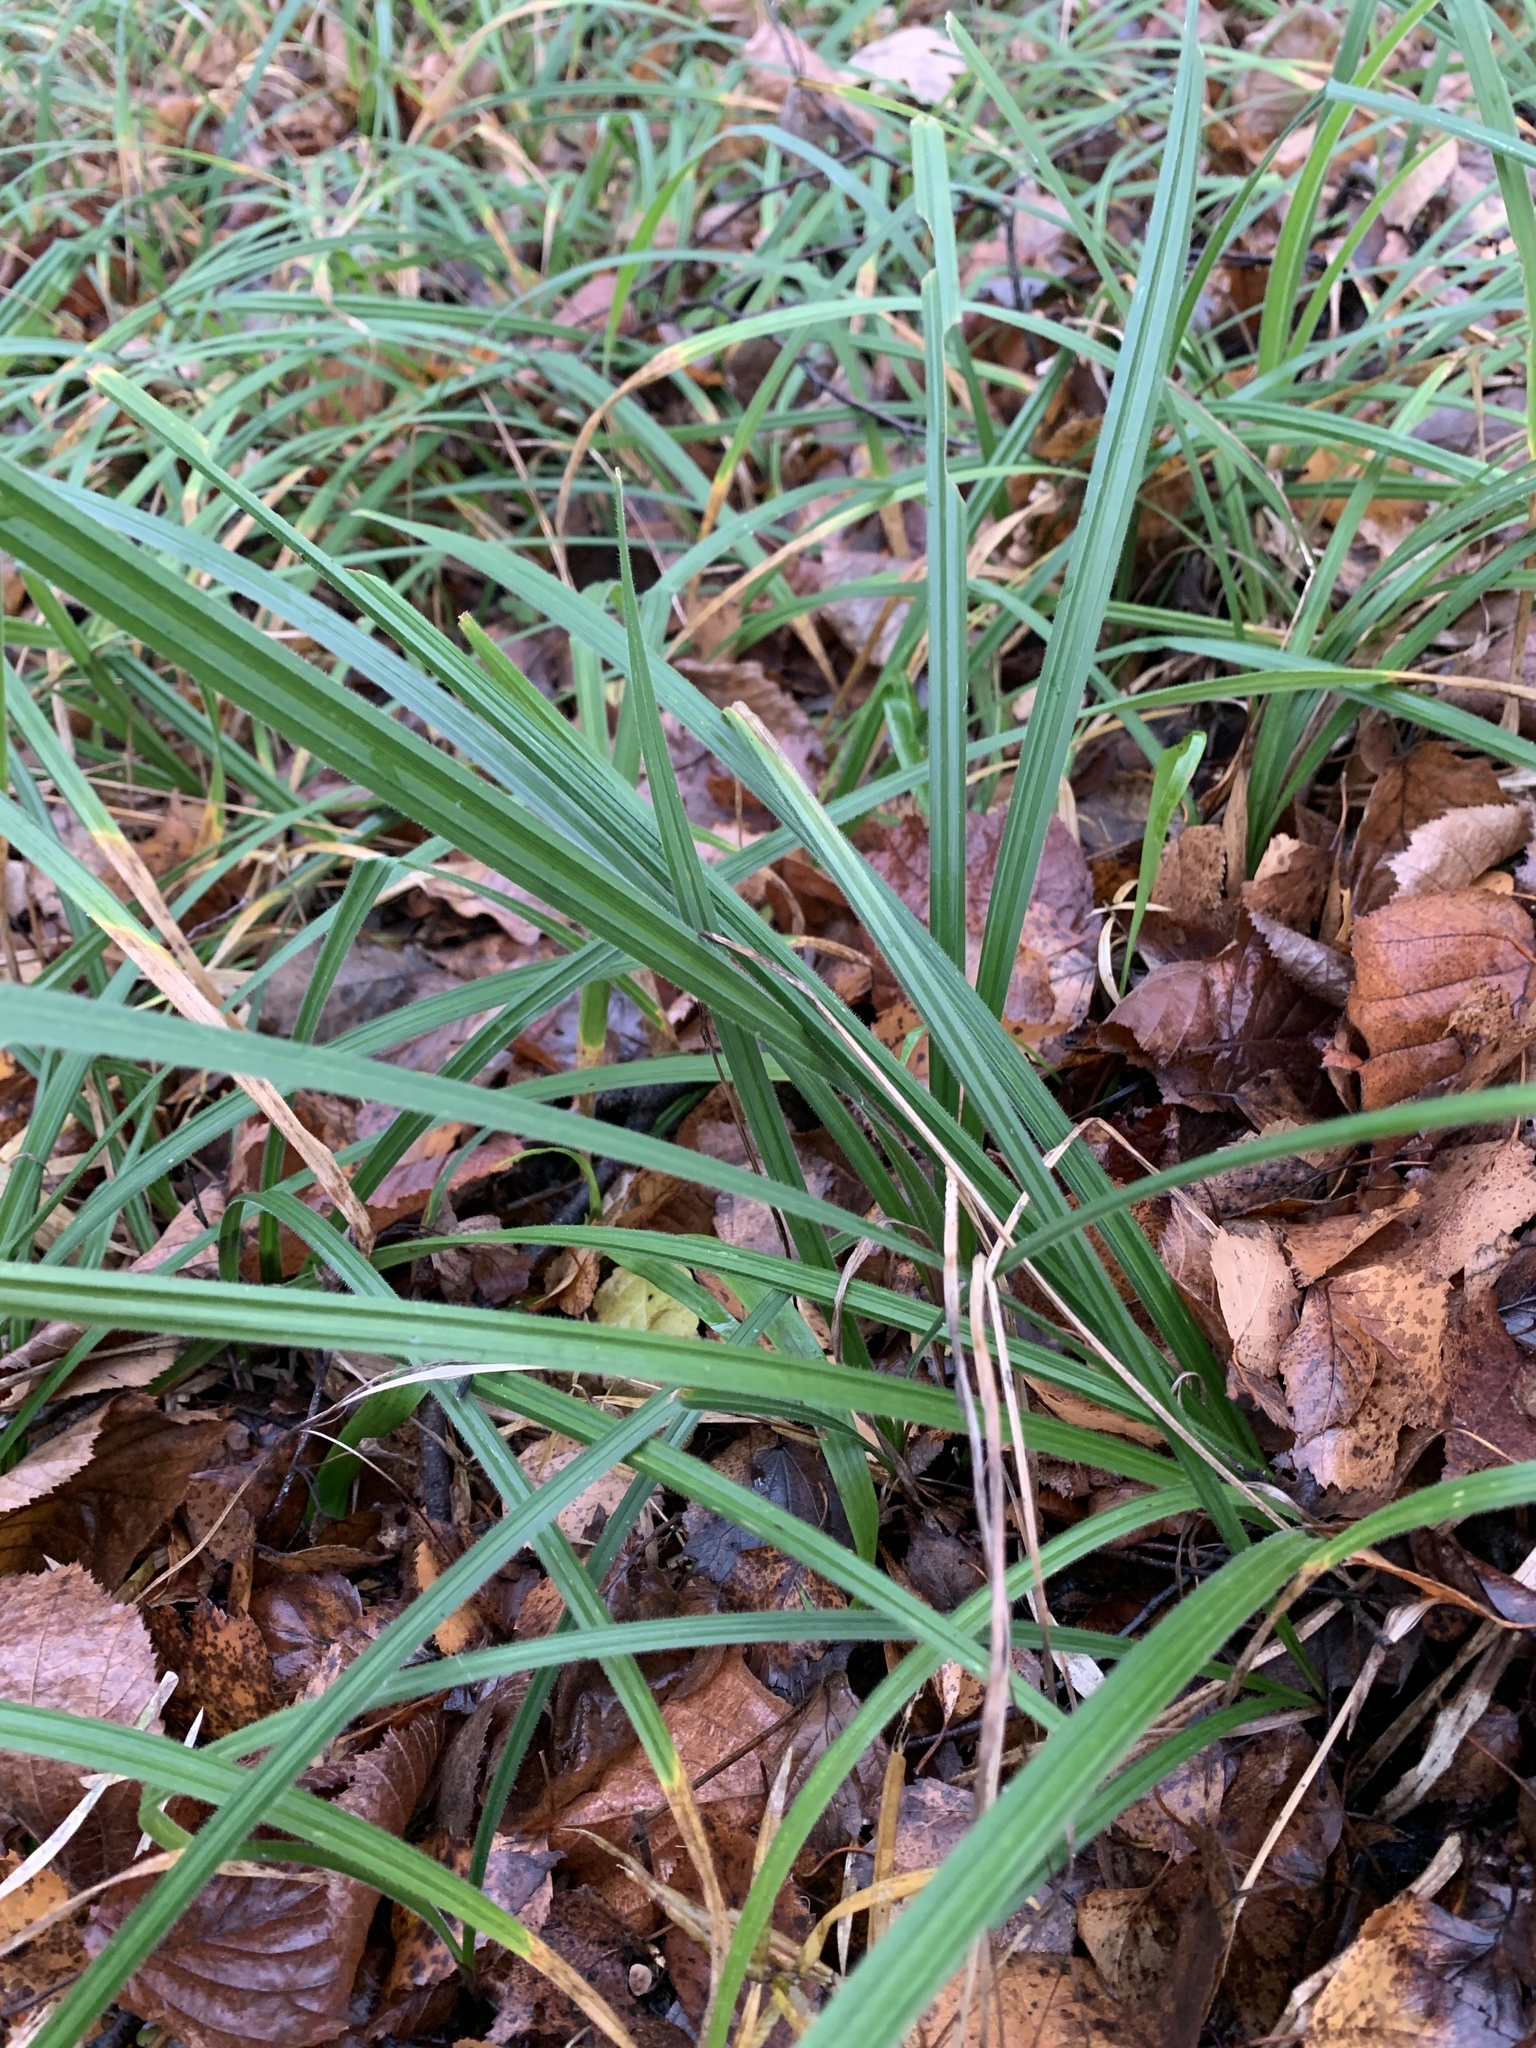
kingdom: Plantae
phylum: Tracheophyta
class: Liliopsida
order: Poales
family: Cyperaceae
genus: Carex
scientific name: Carex pilosa
